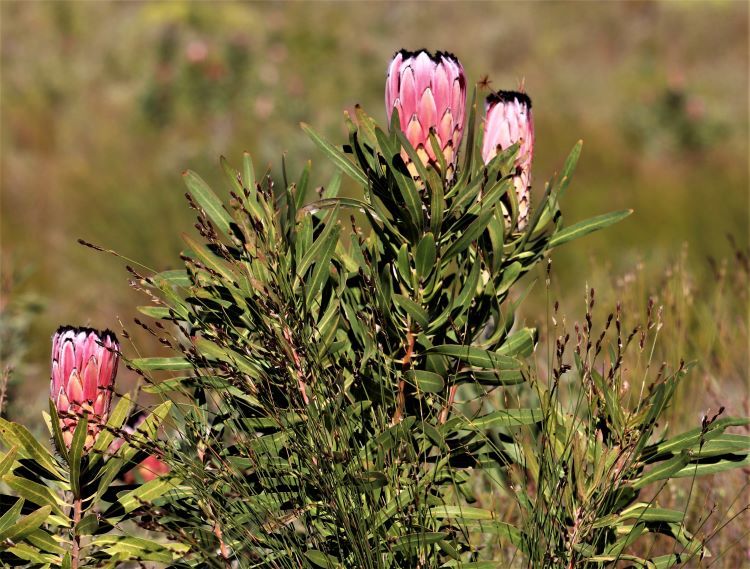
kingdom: Plantae
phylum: Tracheophyta
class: Magnoliopsida
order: Proteales
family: Proteaceae
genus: Protea
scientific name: Protea neriifolia
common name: Blue sugarbush
